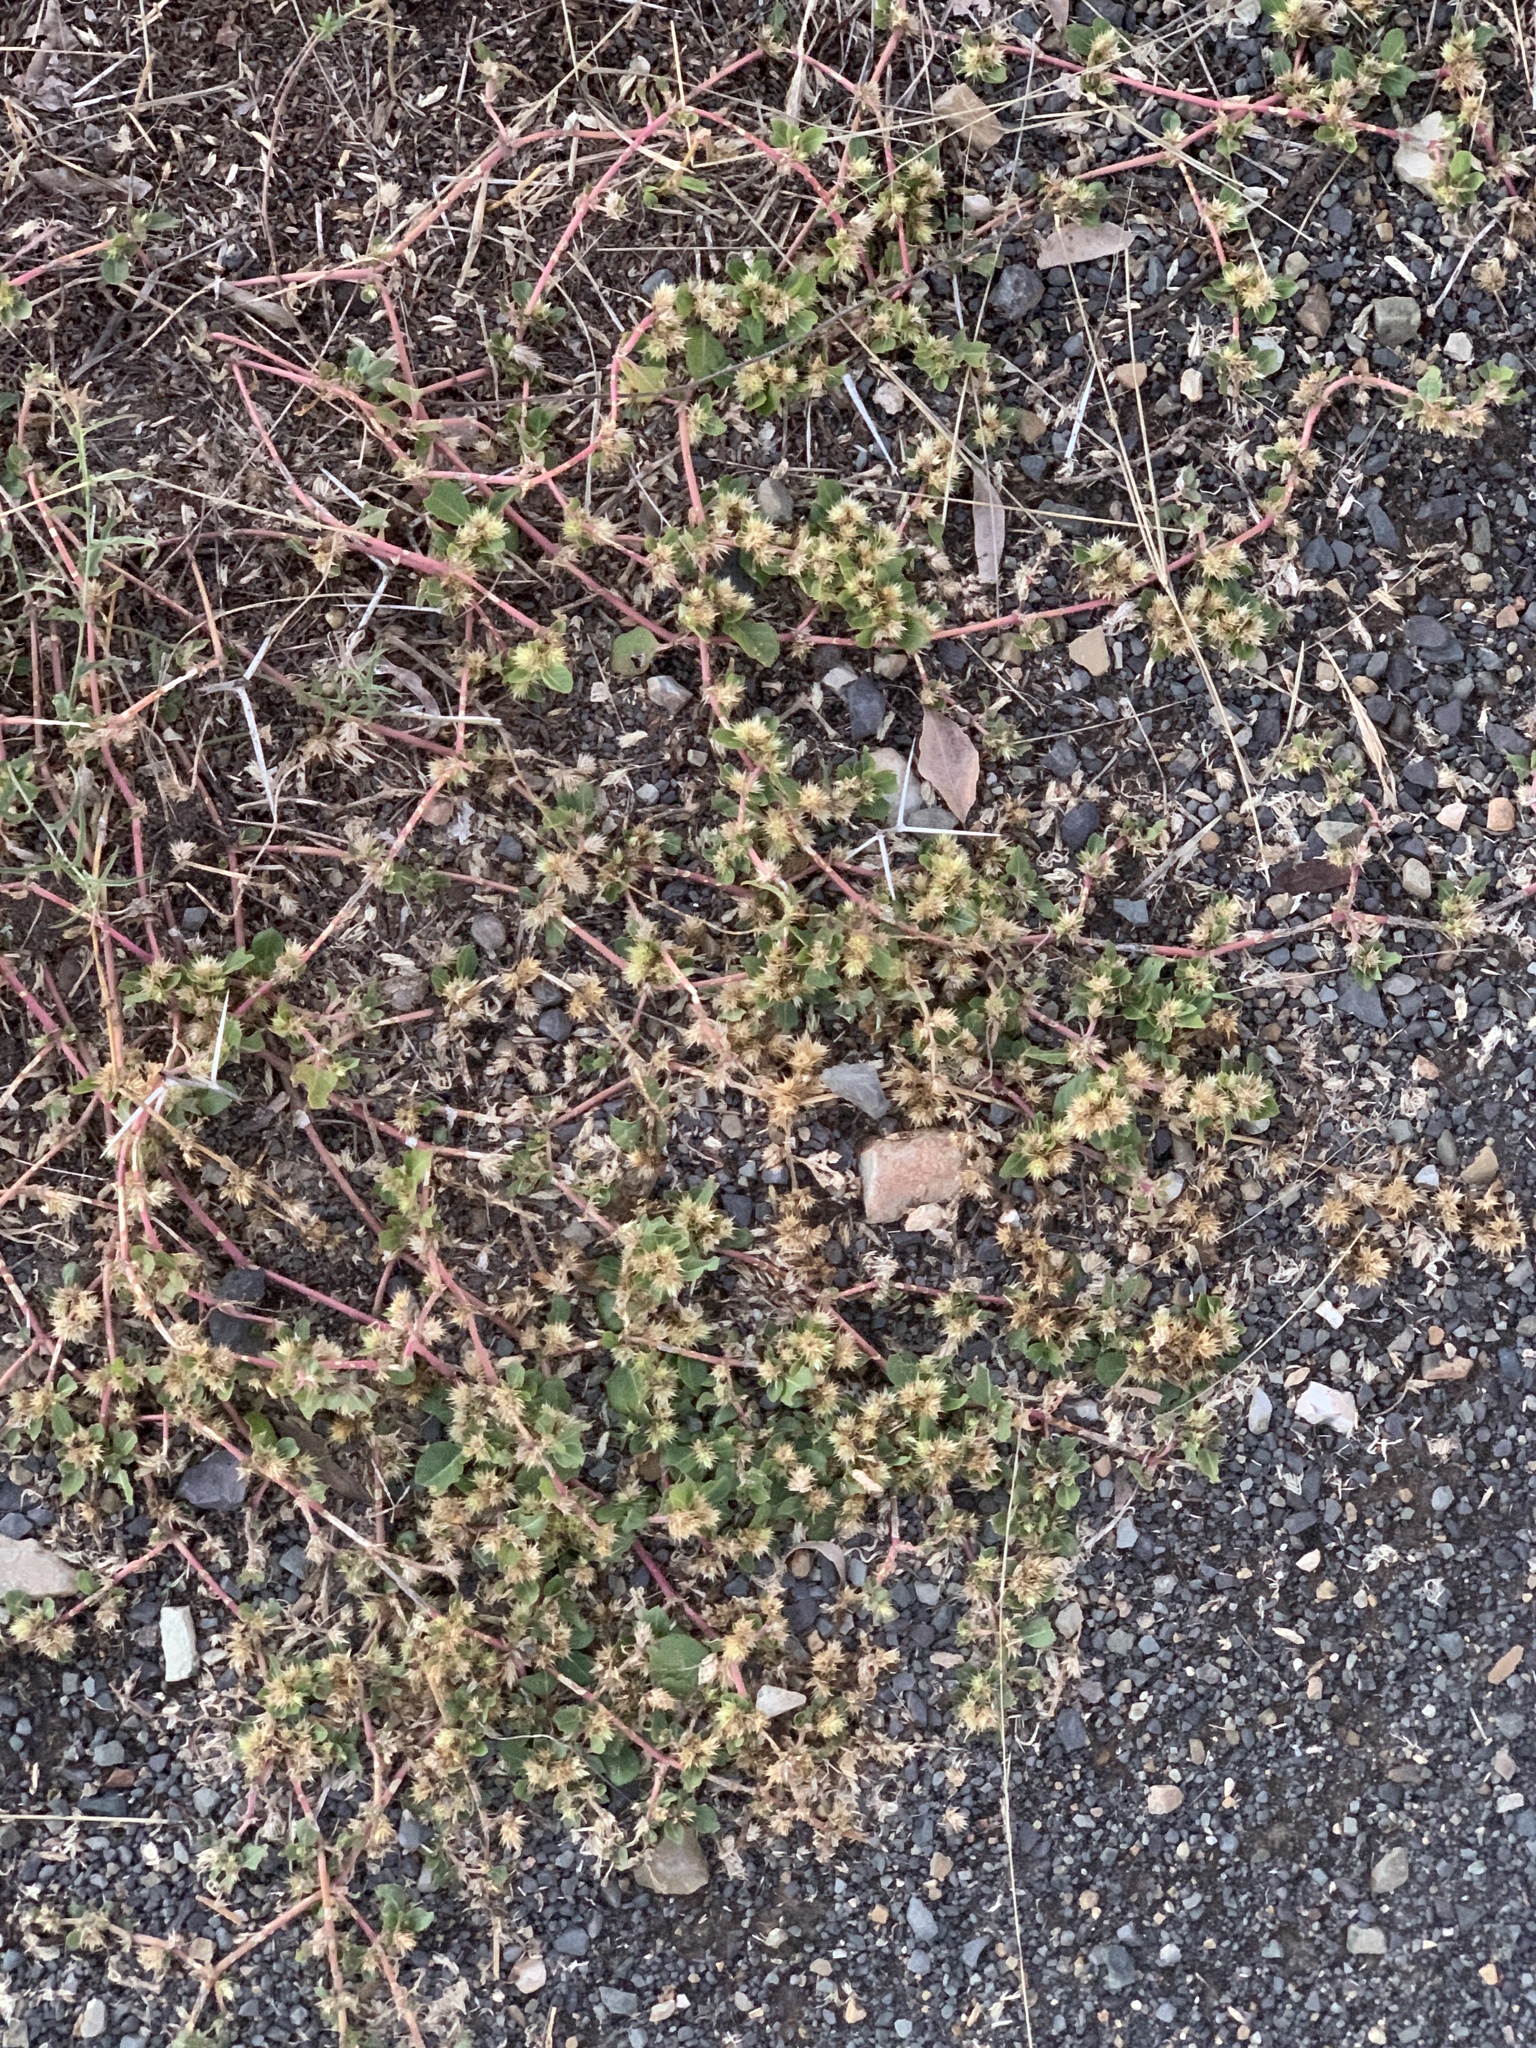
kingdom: Plantae
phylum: Tracheophyta
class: Magnoliopsida
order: Caryophyllales
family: Amaranthaceae
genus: Alternanthera
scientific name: Alternanthera pungens
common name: Khakiweed
